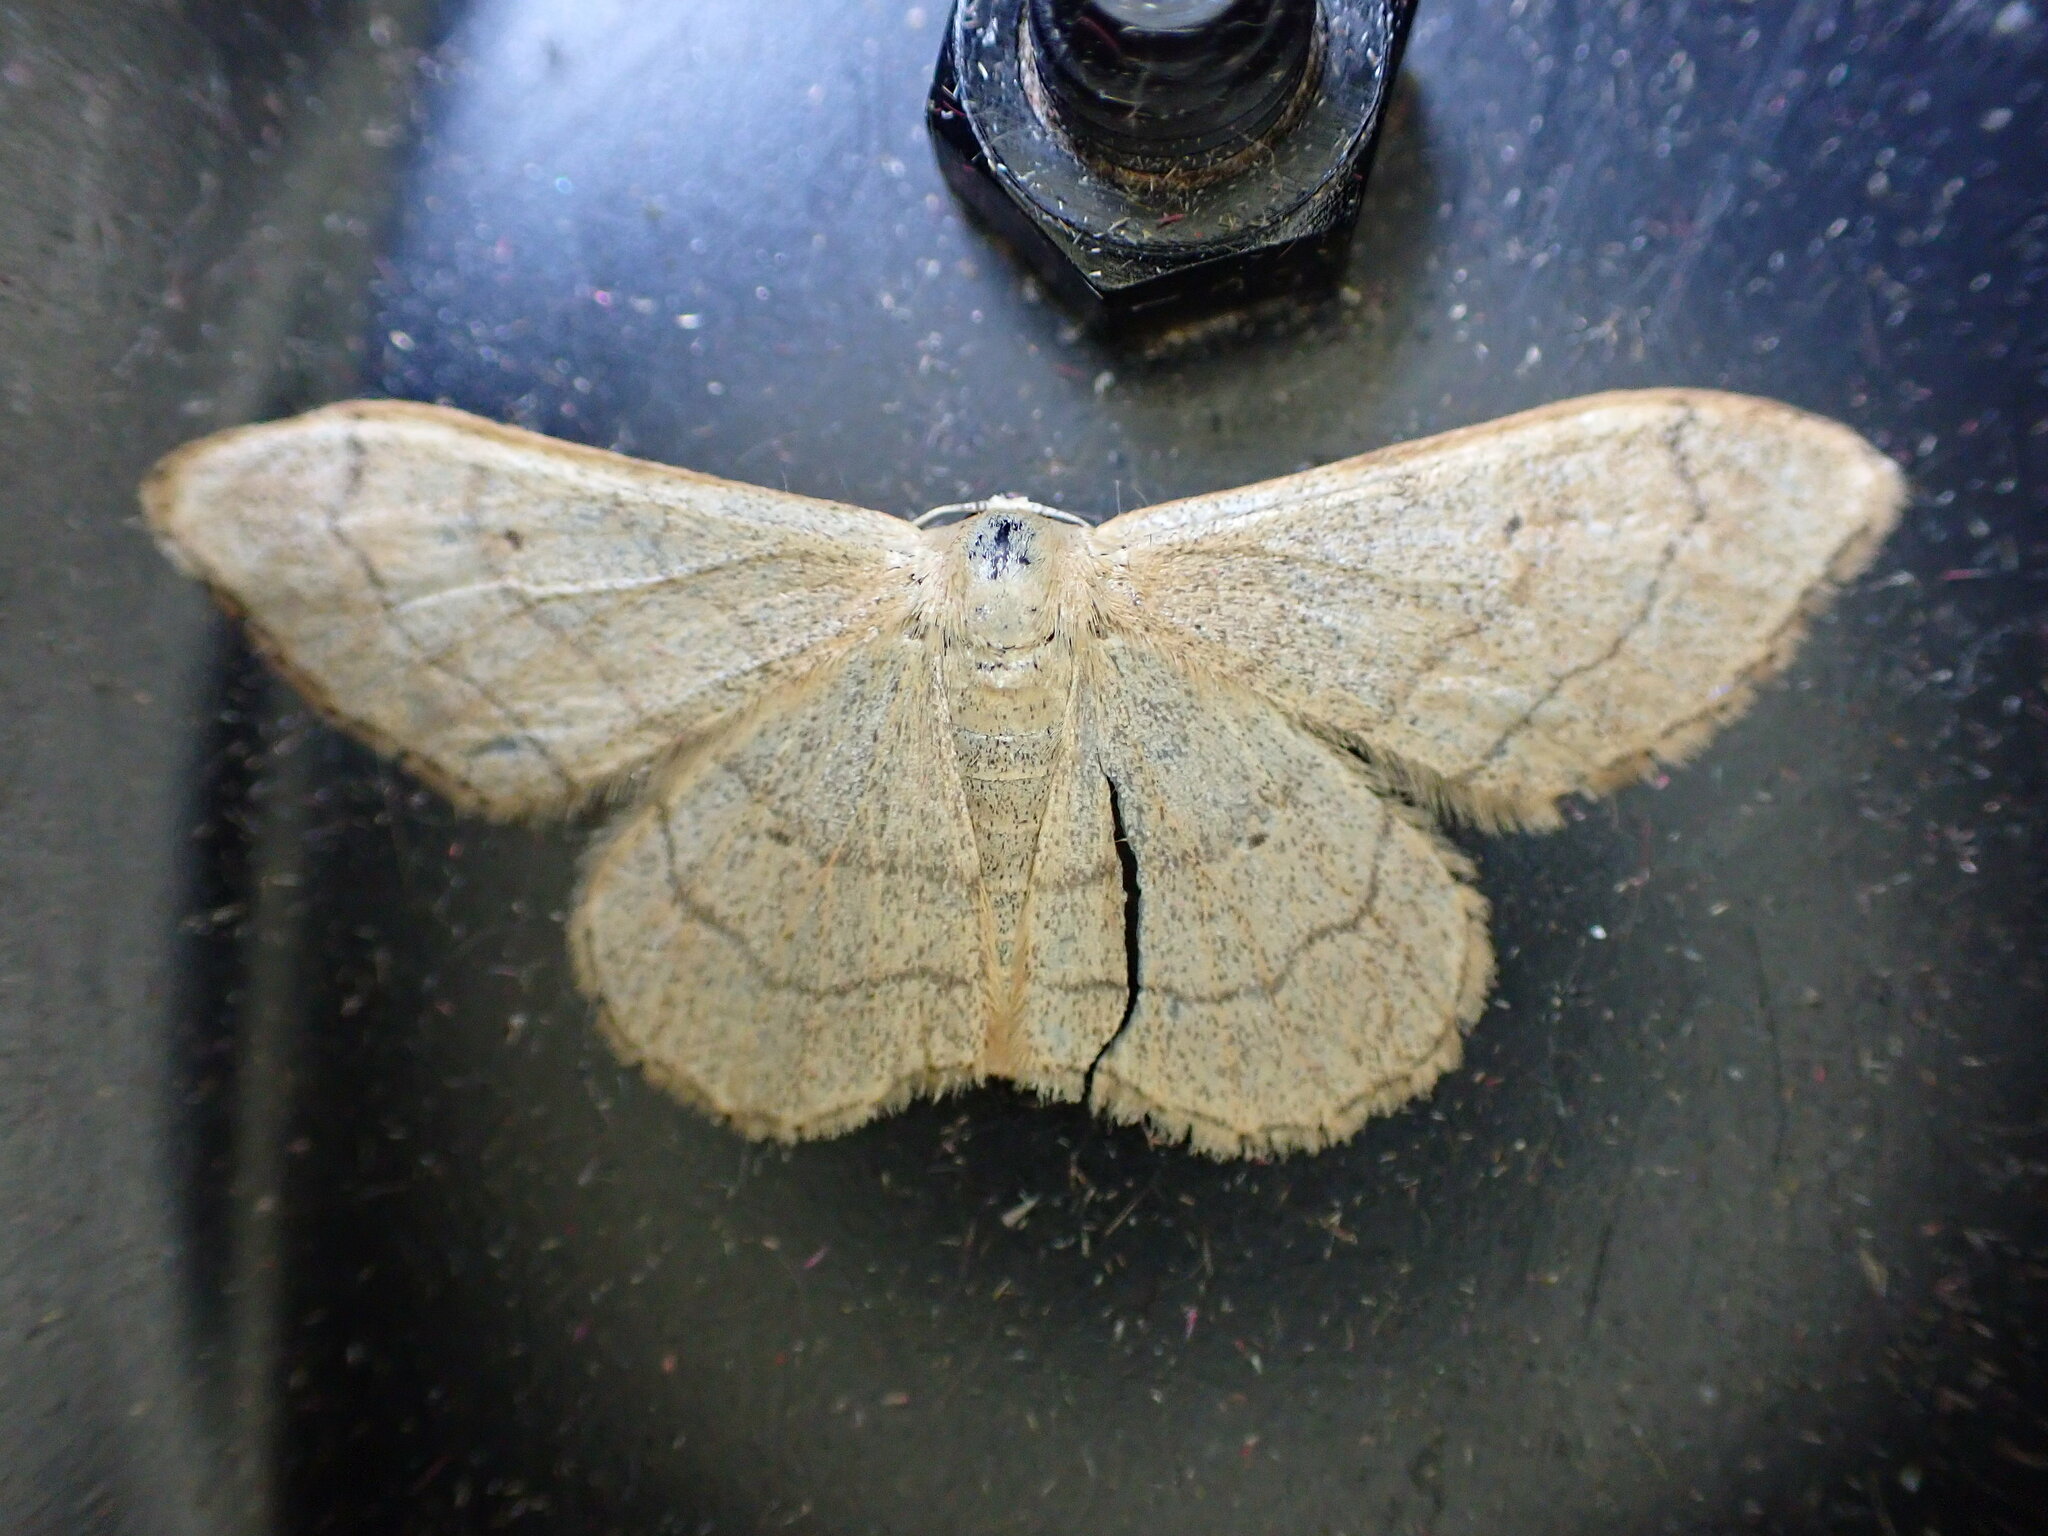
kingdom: Animalia
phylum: Arthropoda
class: Insecta
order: Lepidoptera
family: Geometridae
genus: Idaea
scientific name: Idaea aversata
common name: Riband wave
